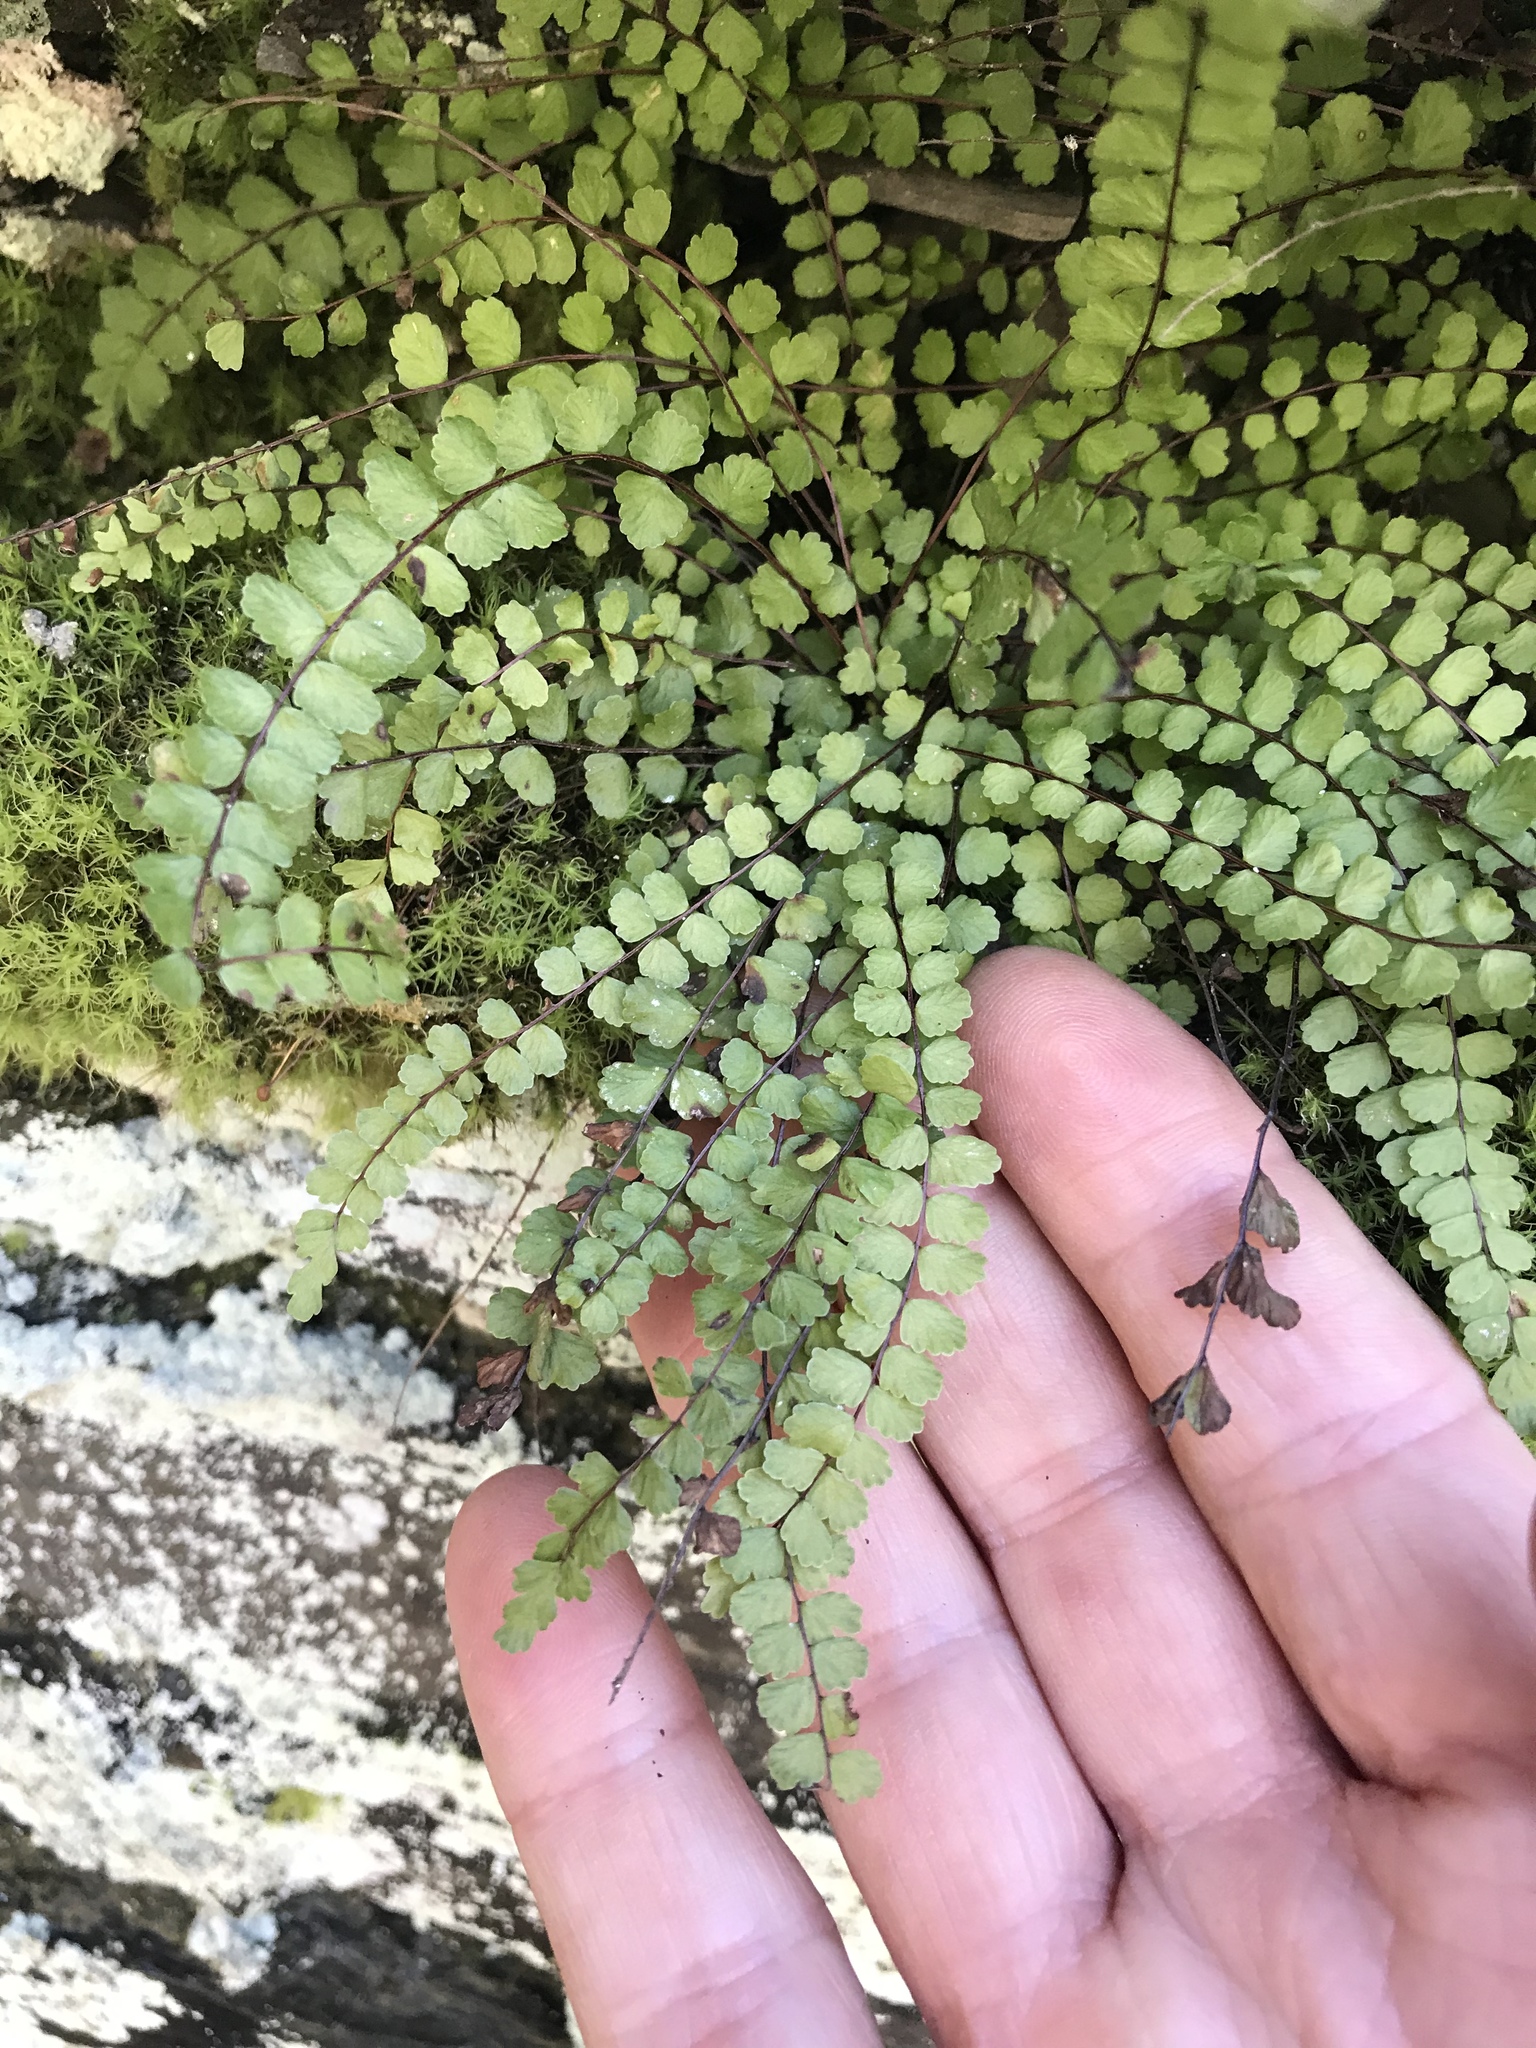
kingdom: Plantae
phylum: Tracheophyta
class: Polypodiopsida
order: Polypodiales
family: Aspleniaceae
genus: Asplenium
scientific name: Asplenium trichomanes
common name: Maidenhair spleenwort
